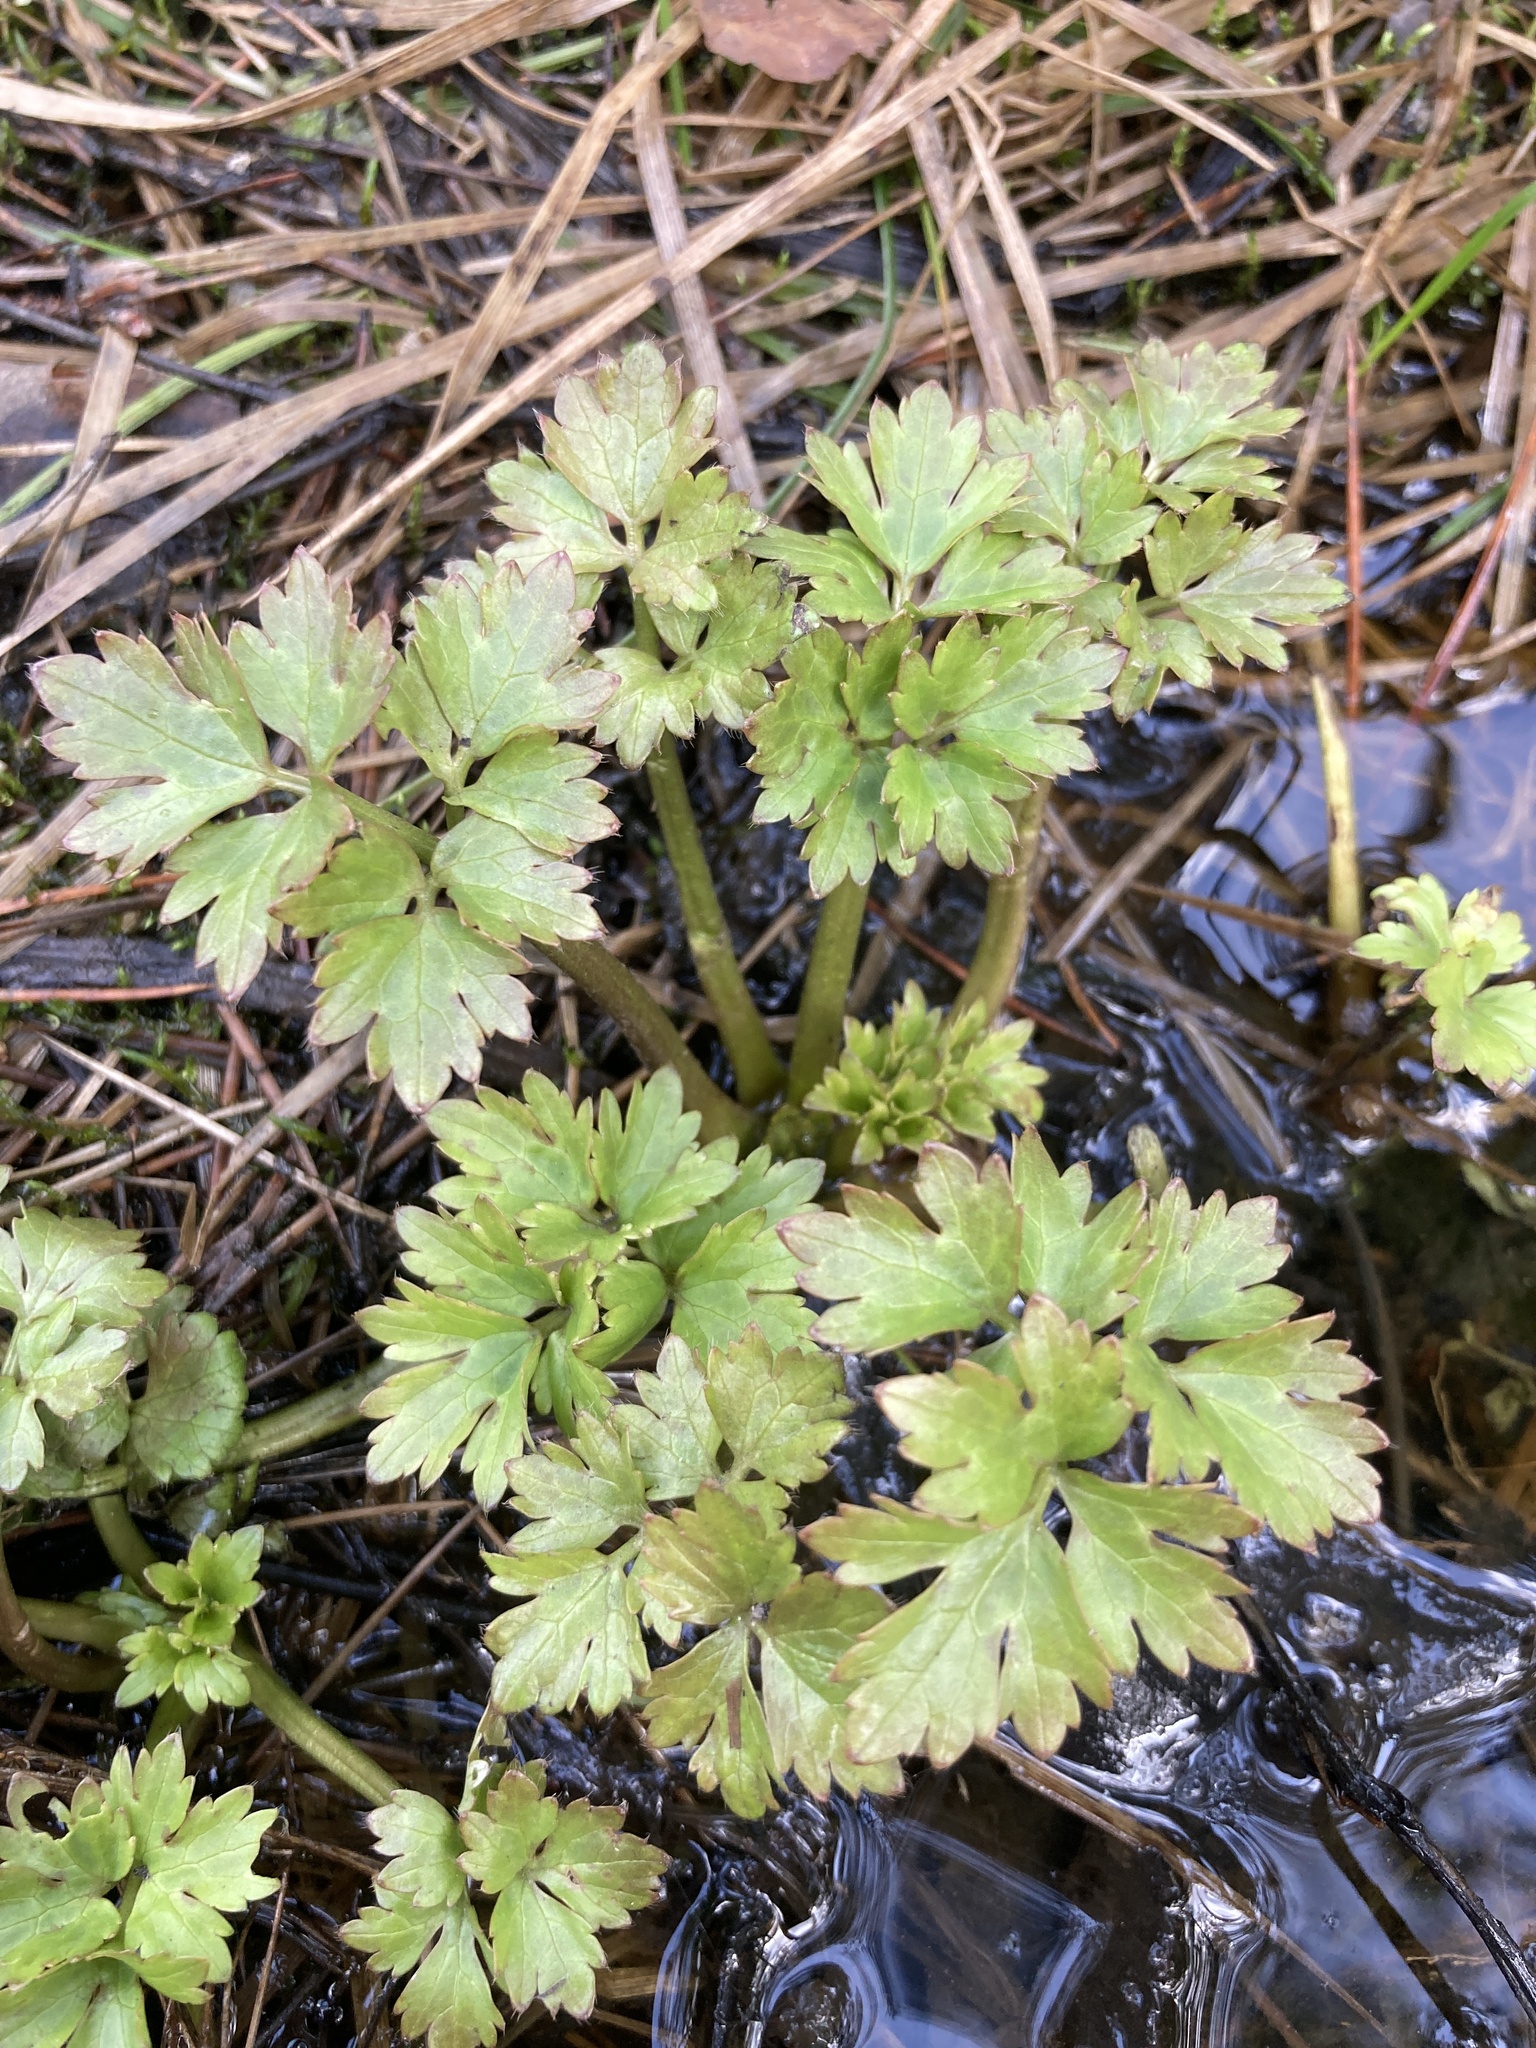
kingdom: Plantae
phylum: Tracheophyta
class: Magnoliopsida
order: Ranunculales
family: Ranunculaceae
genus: Ranunculus
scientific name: Ranunculus repens
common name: Creeping buttercup
